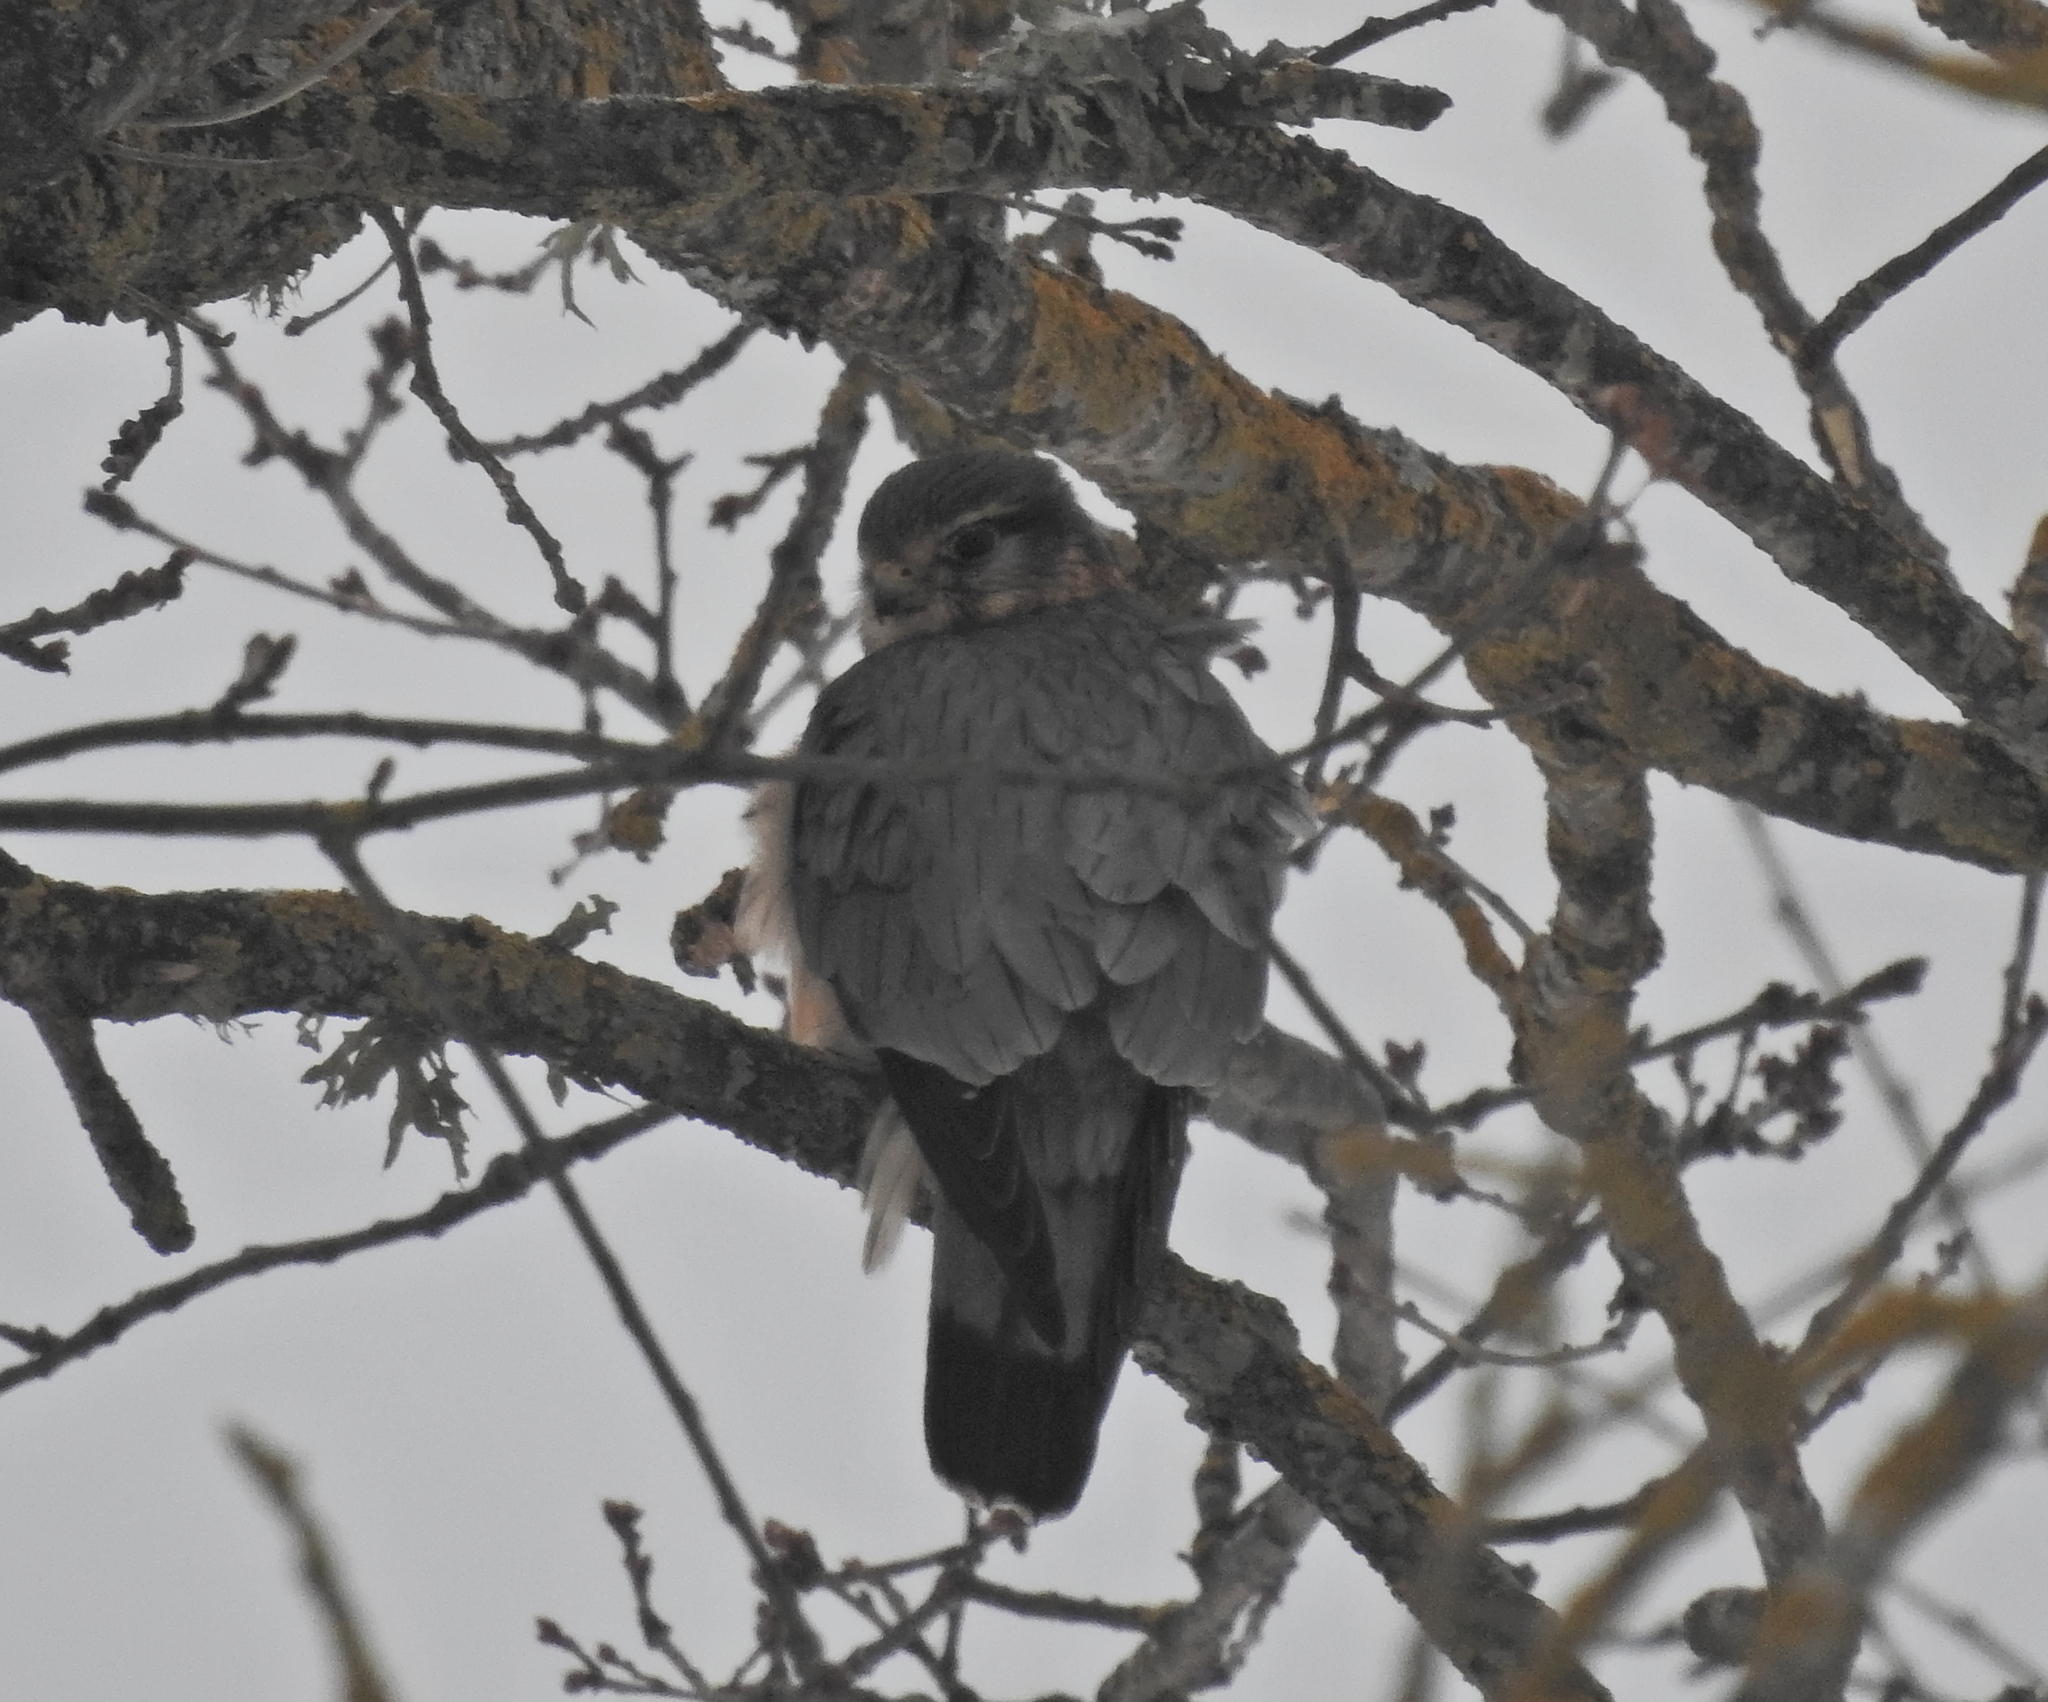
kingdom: Animalia
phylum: Chordata
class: Aves
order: Falconiformes
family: Falconidae
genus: Falco
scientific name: Falco columbarius
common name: Merlin
